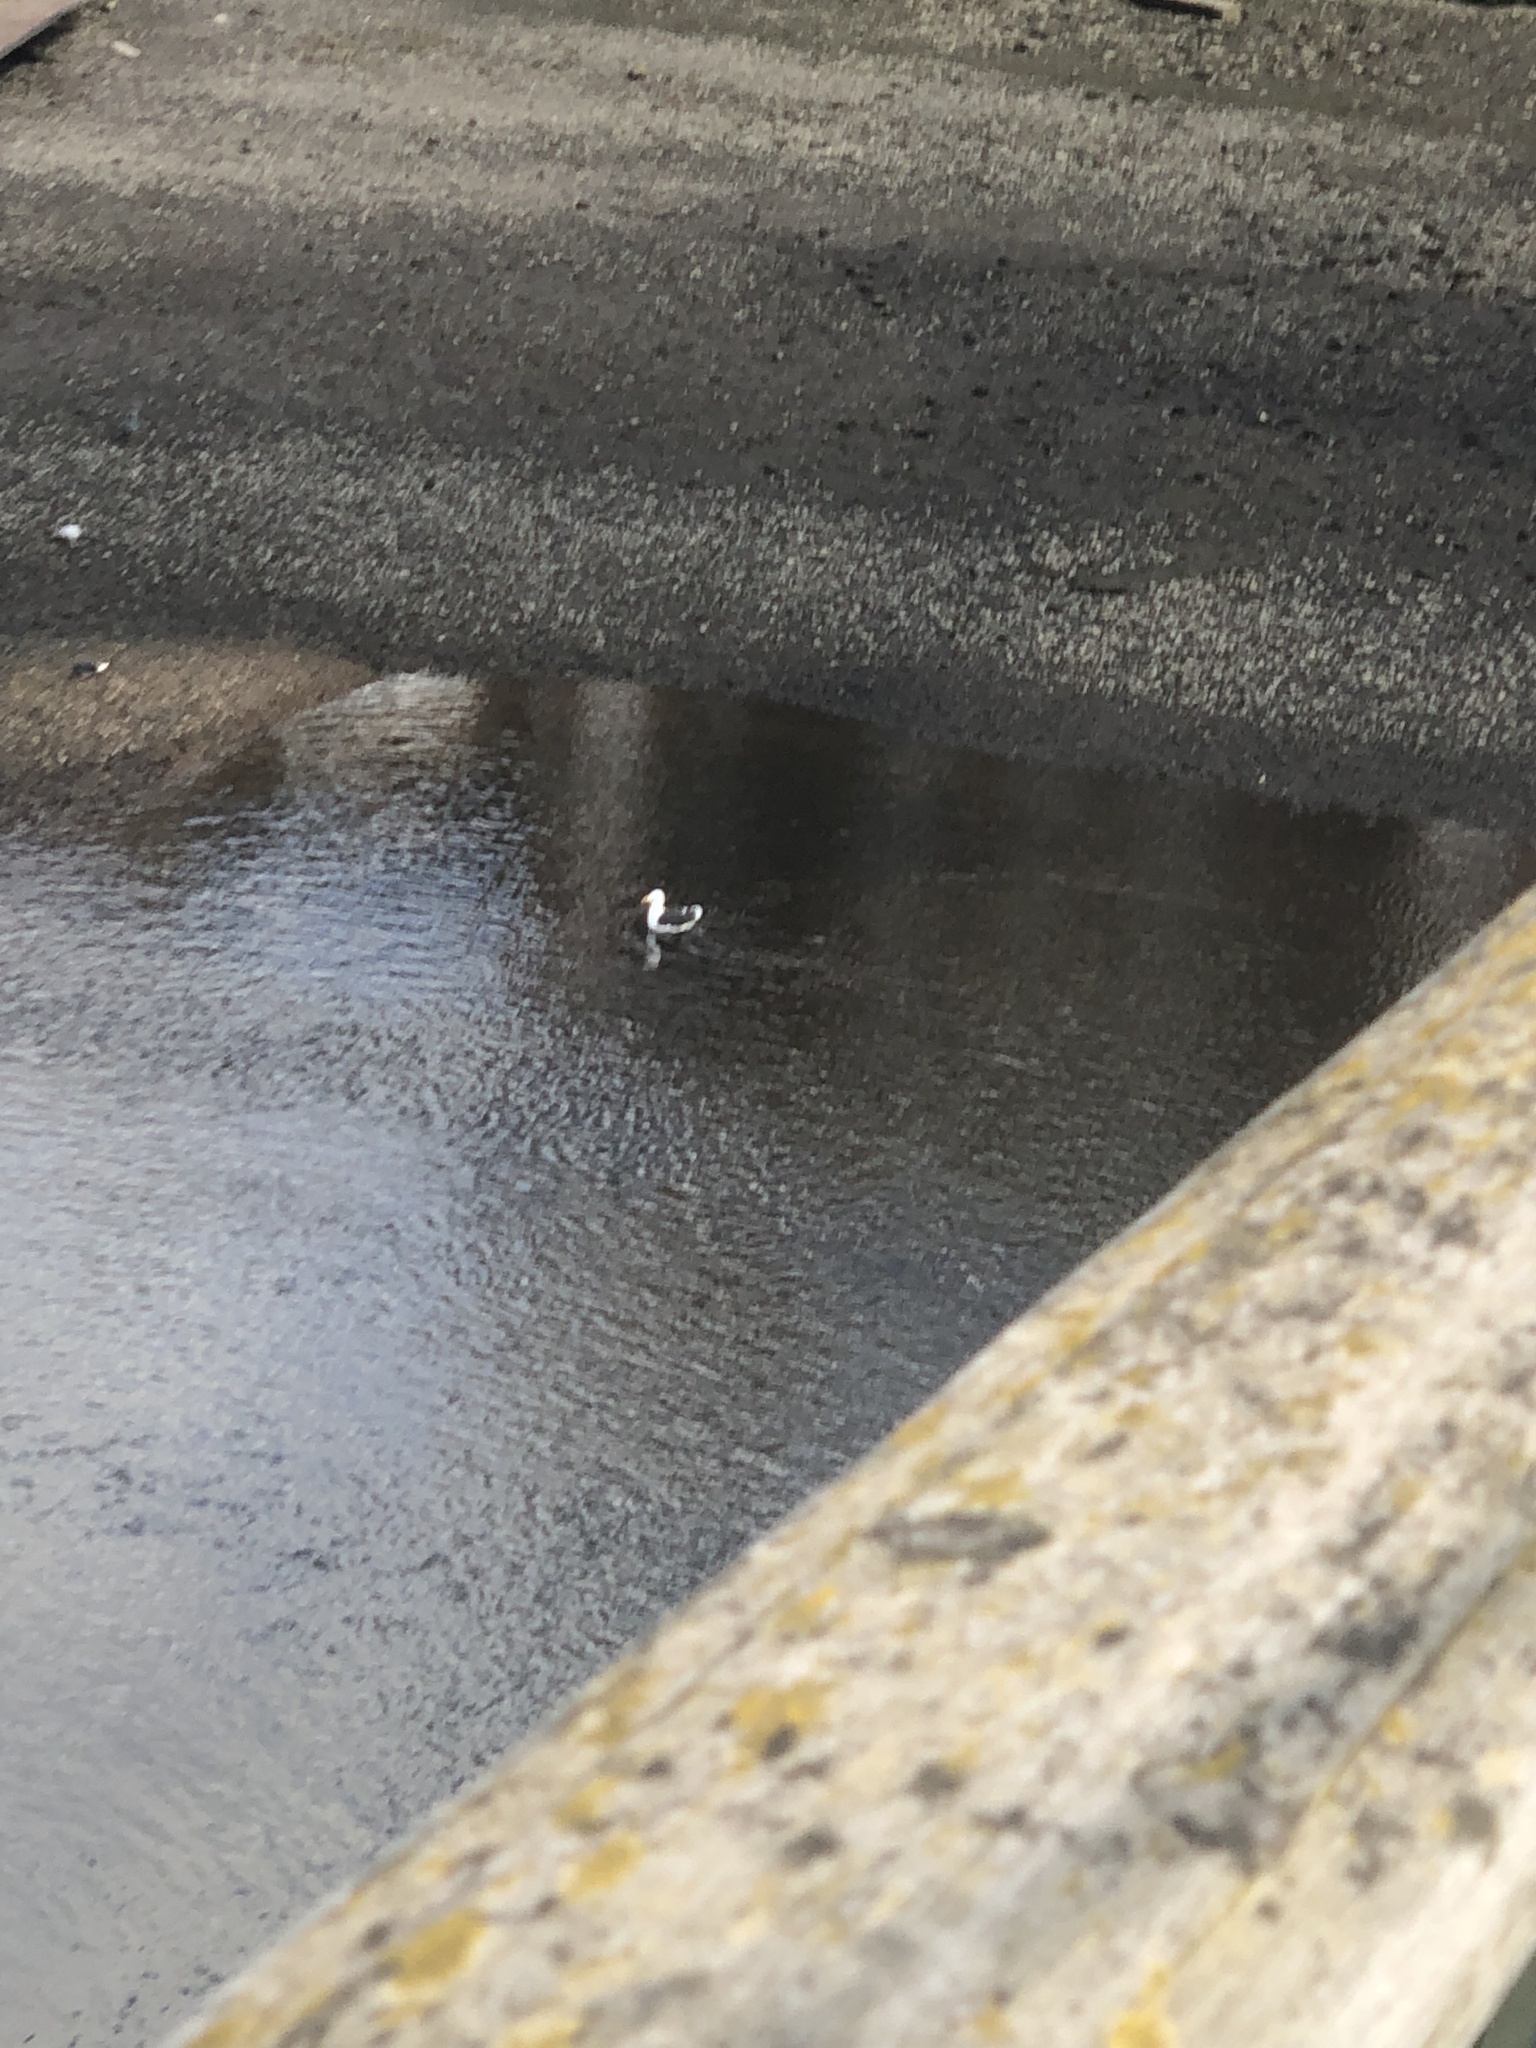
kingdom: Animalia
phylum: Chordata
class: Aves
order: Charadriiformes
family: Laridae
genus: Larus
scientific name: Larus fuscus
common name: Lesser black-backed gull
